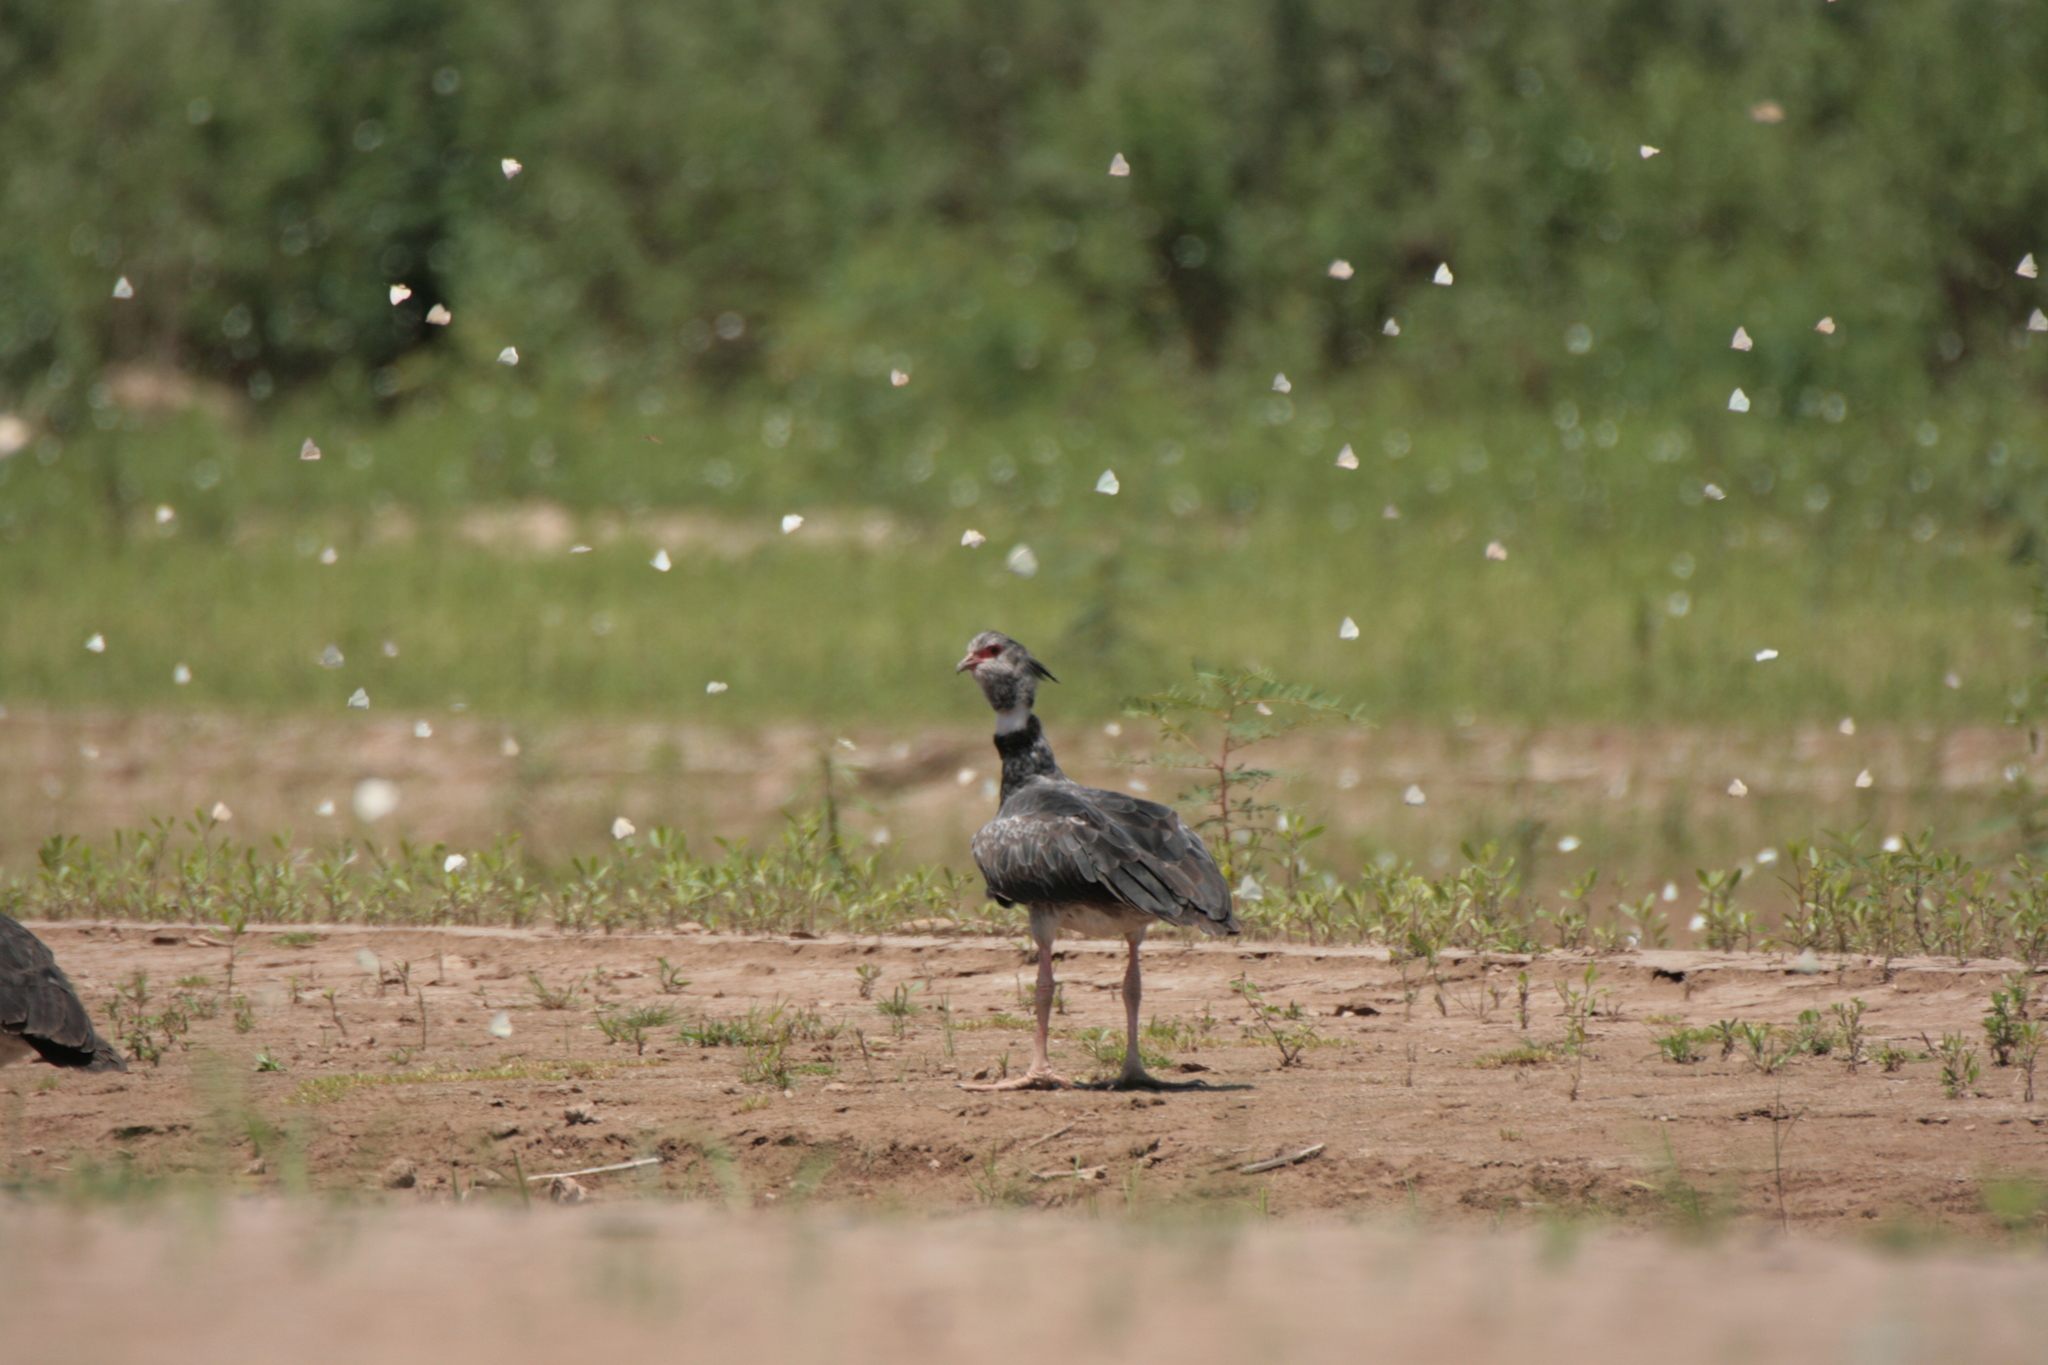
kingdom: Animalia
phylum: Chordata
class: Aves
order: Anseriformes
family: Anhimidae
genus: Chauna
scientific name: Chauna torquata
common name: Southern screamer
